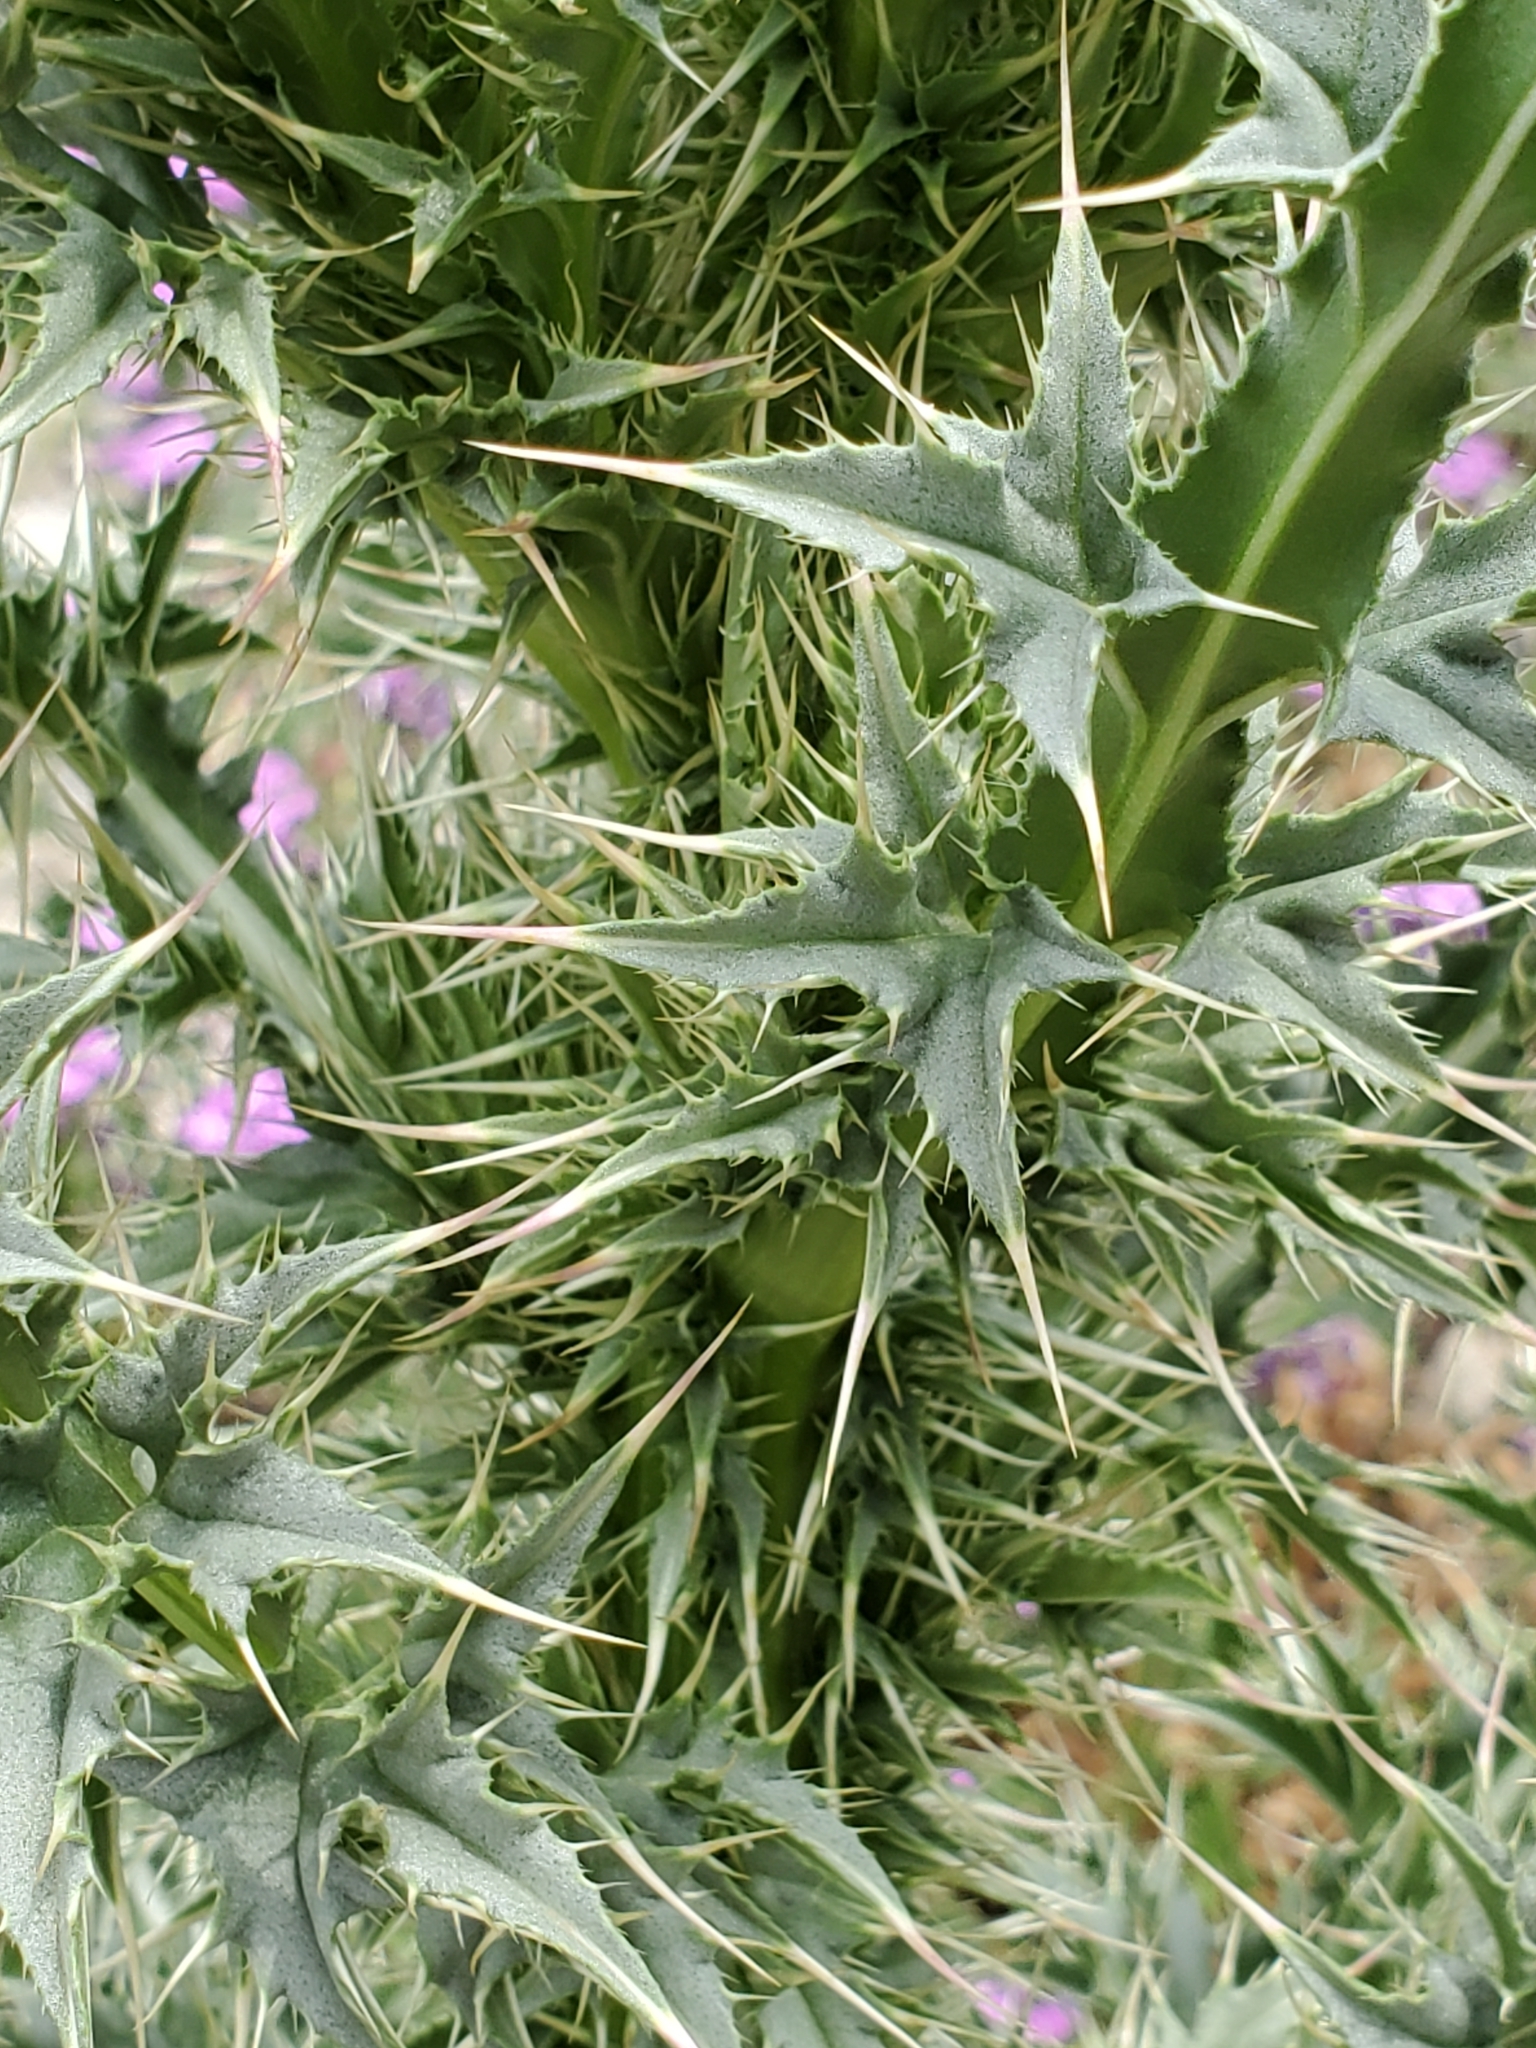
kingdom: Plantae
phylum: Tracheophyta
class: Magnoliopsida
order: Asterales
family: Asteraceae
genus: Carduus
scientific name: Carduus nutans
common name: Musk thistle
